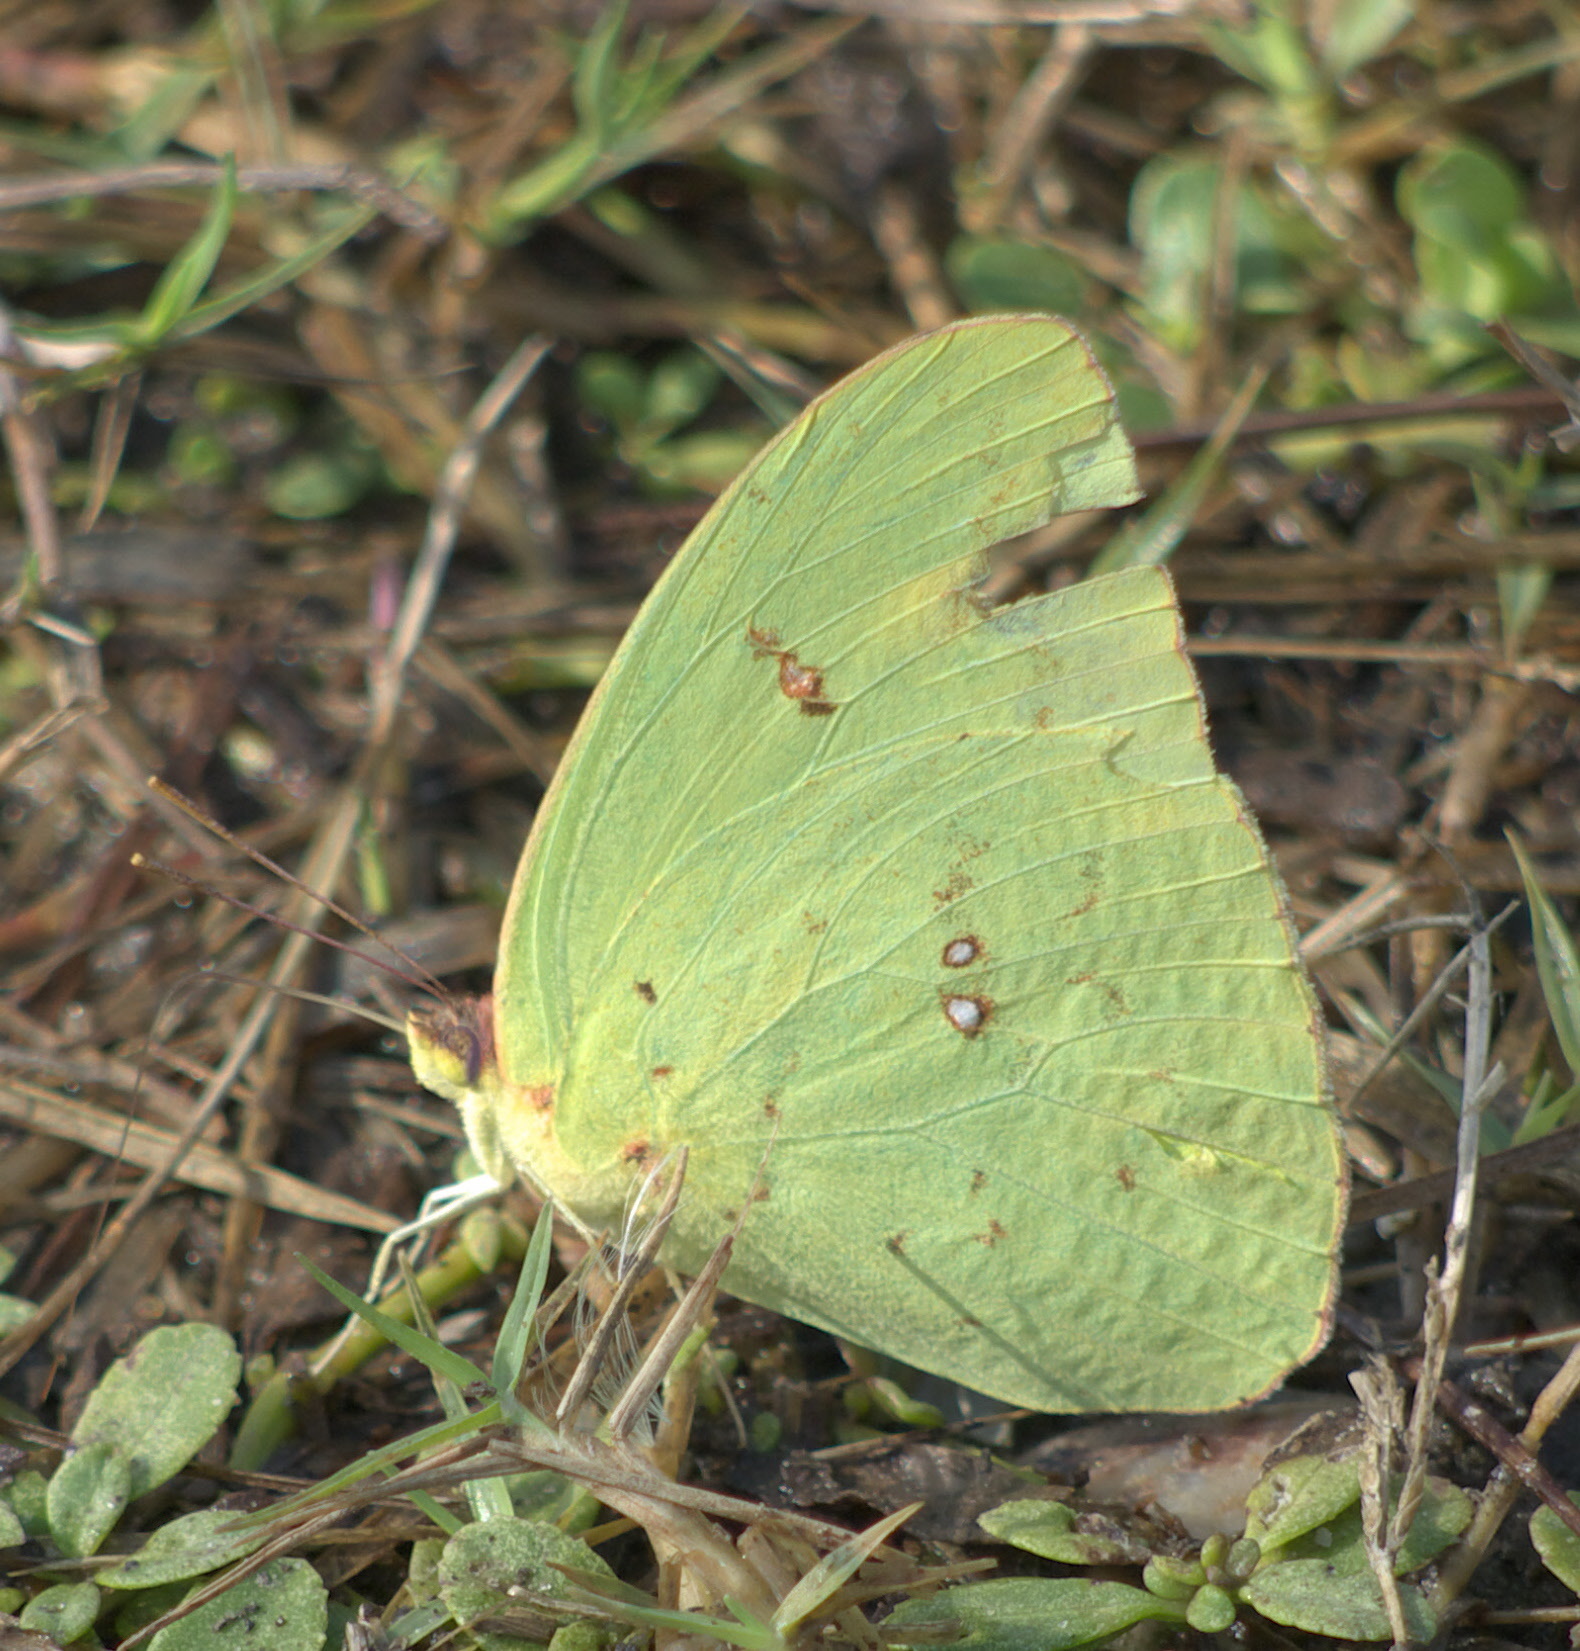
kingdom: Animalia
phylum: Arthropoda
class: Insecta
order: Lepidoptera
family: Pieridae
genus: Phoebis
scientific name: Phoebis sennae
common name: Cloudless sulphur
